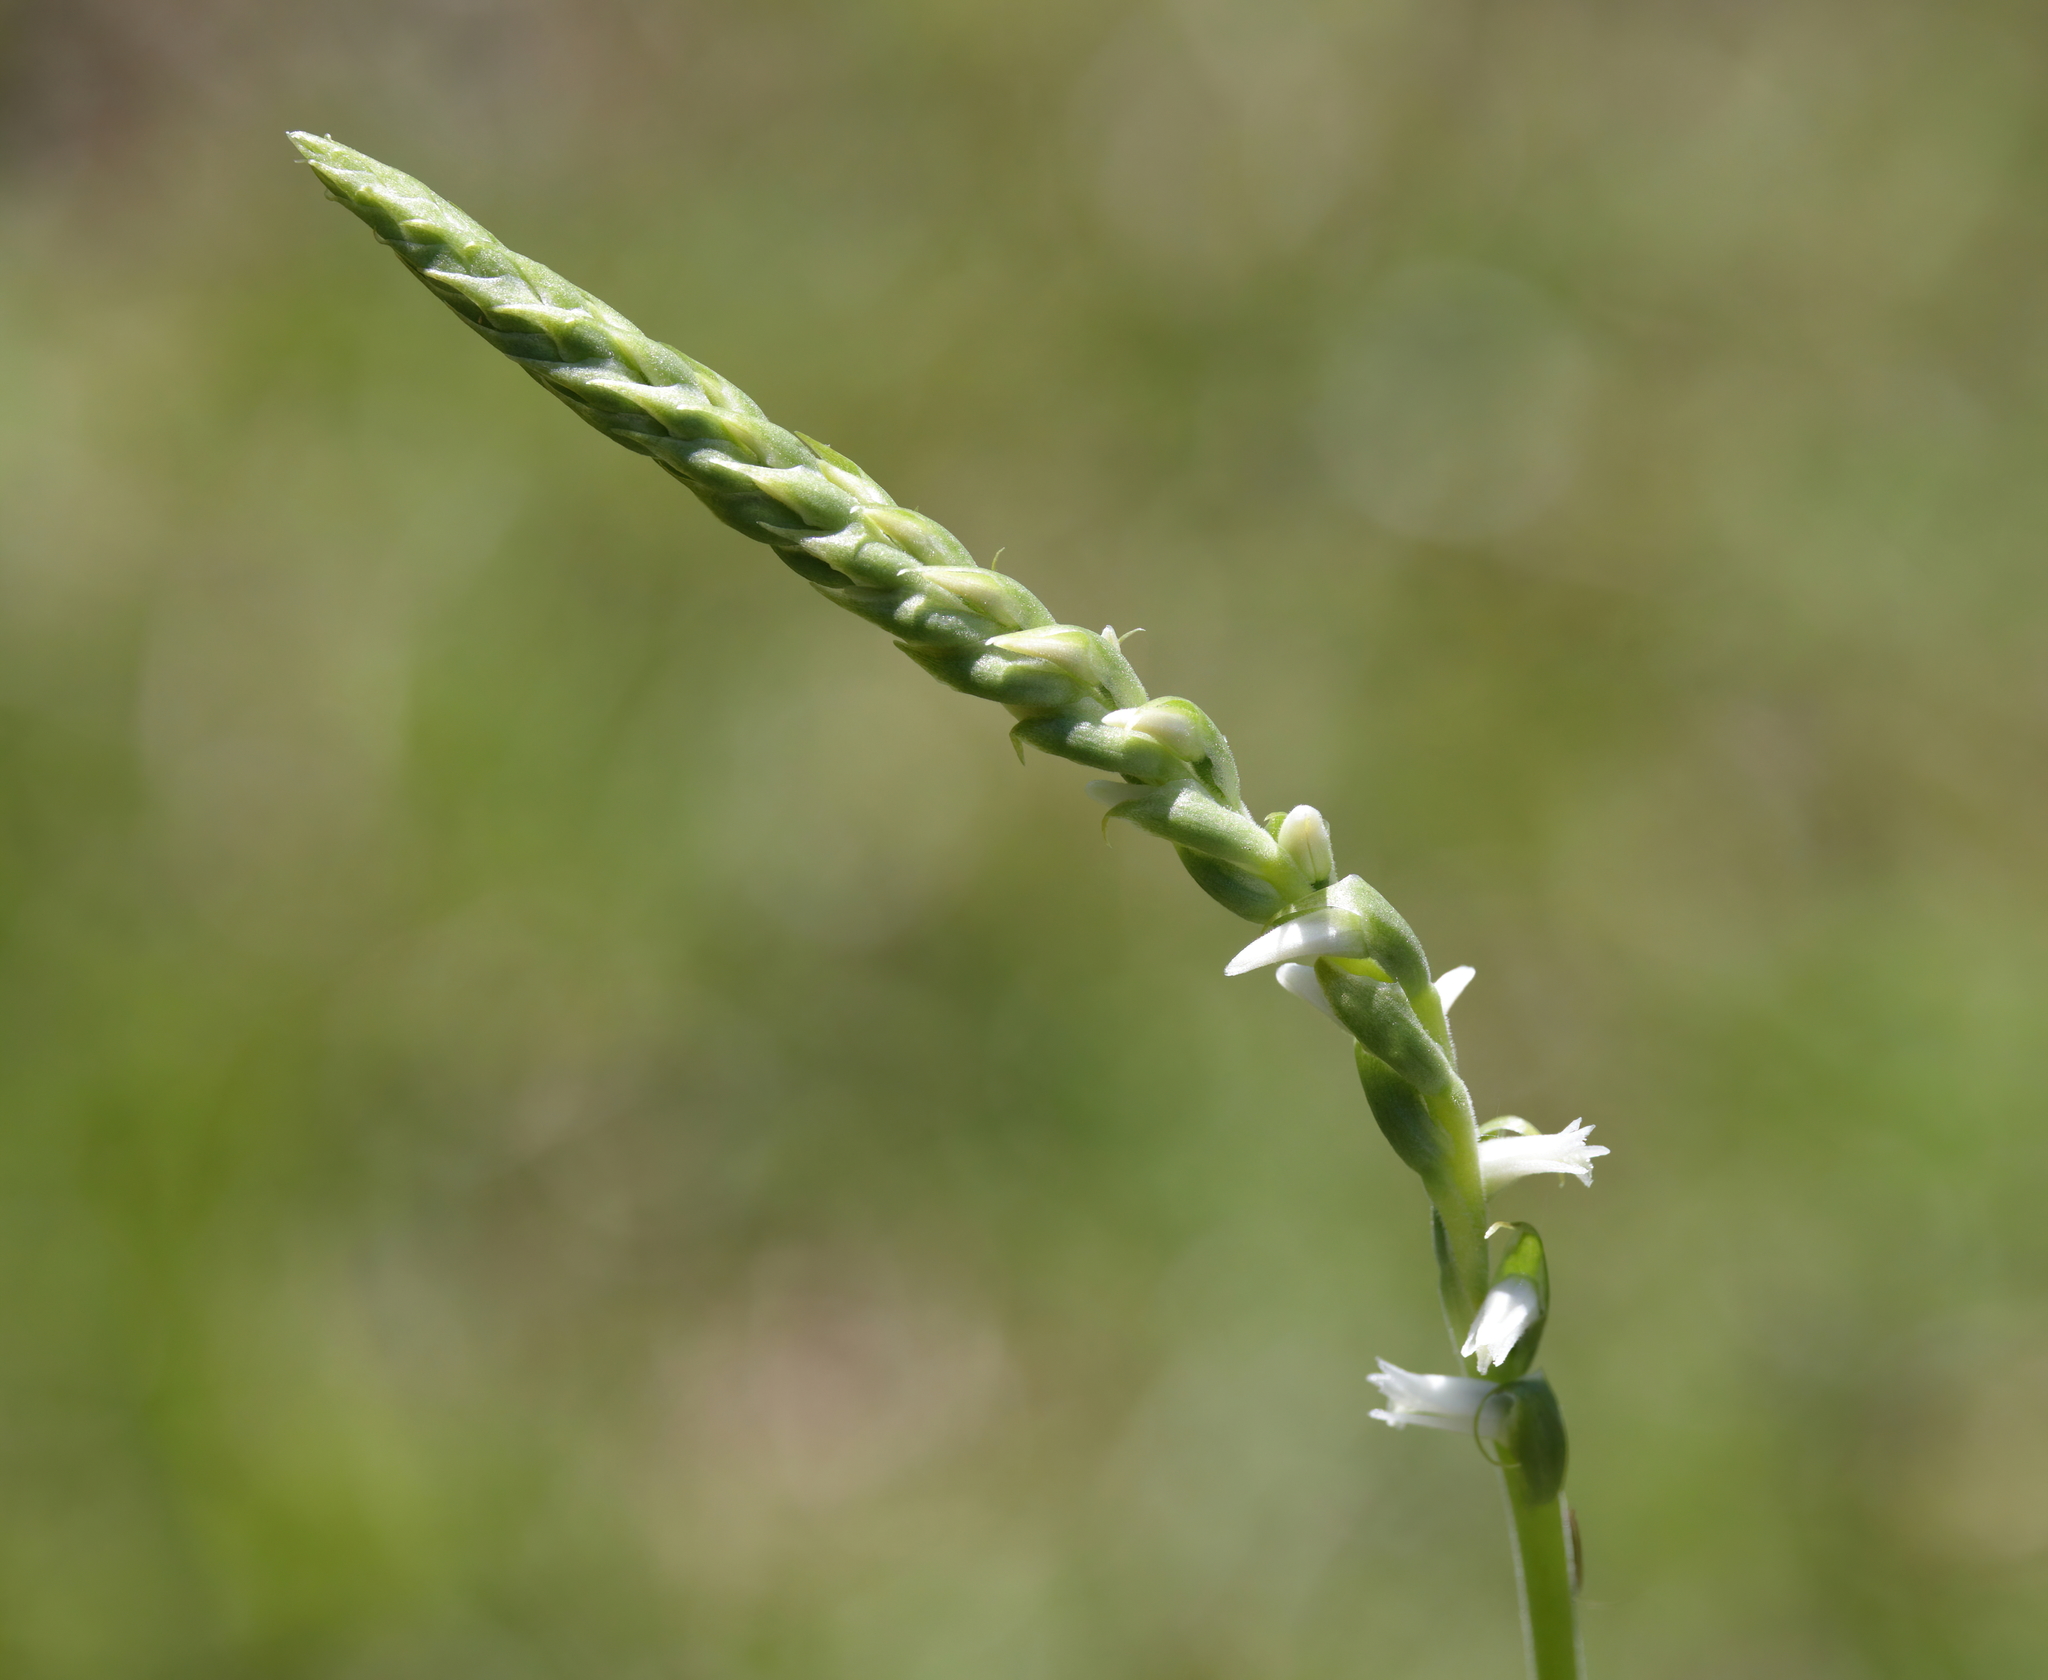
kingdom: Plantae
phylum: Tracheophyta
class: Liliopsida
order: Asparagales
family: Orchidaceae
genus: Spiranthes
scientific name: Spiranthes vernalis
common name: Spring ladies'-tresses
